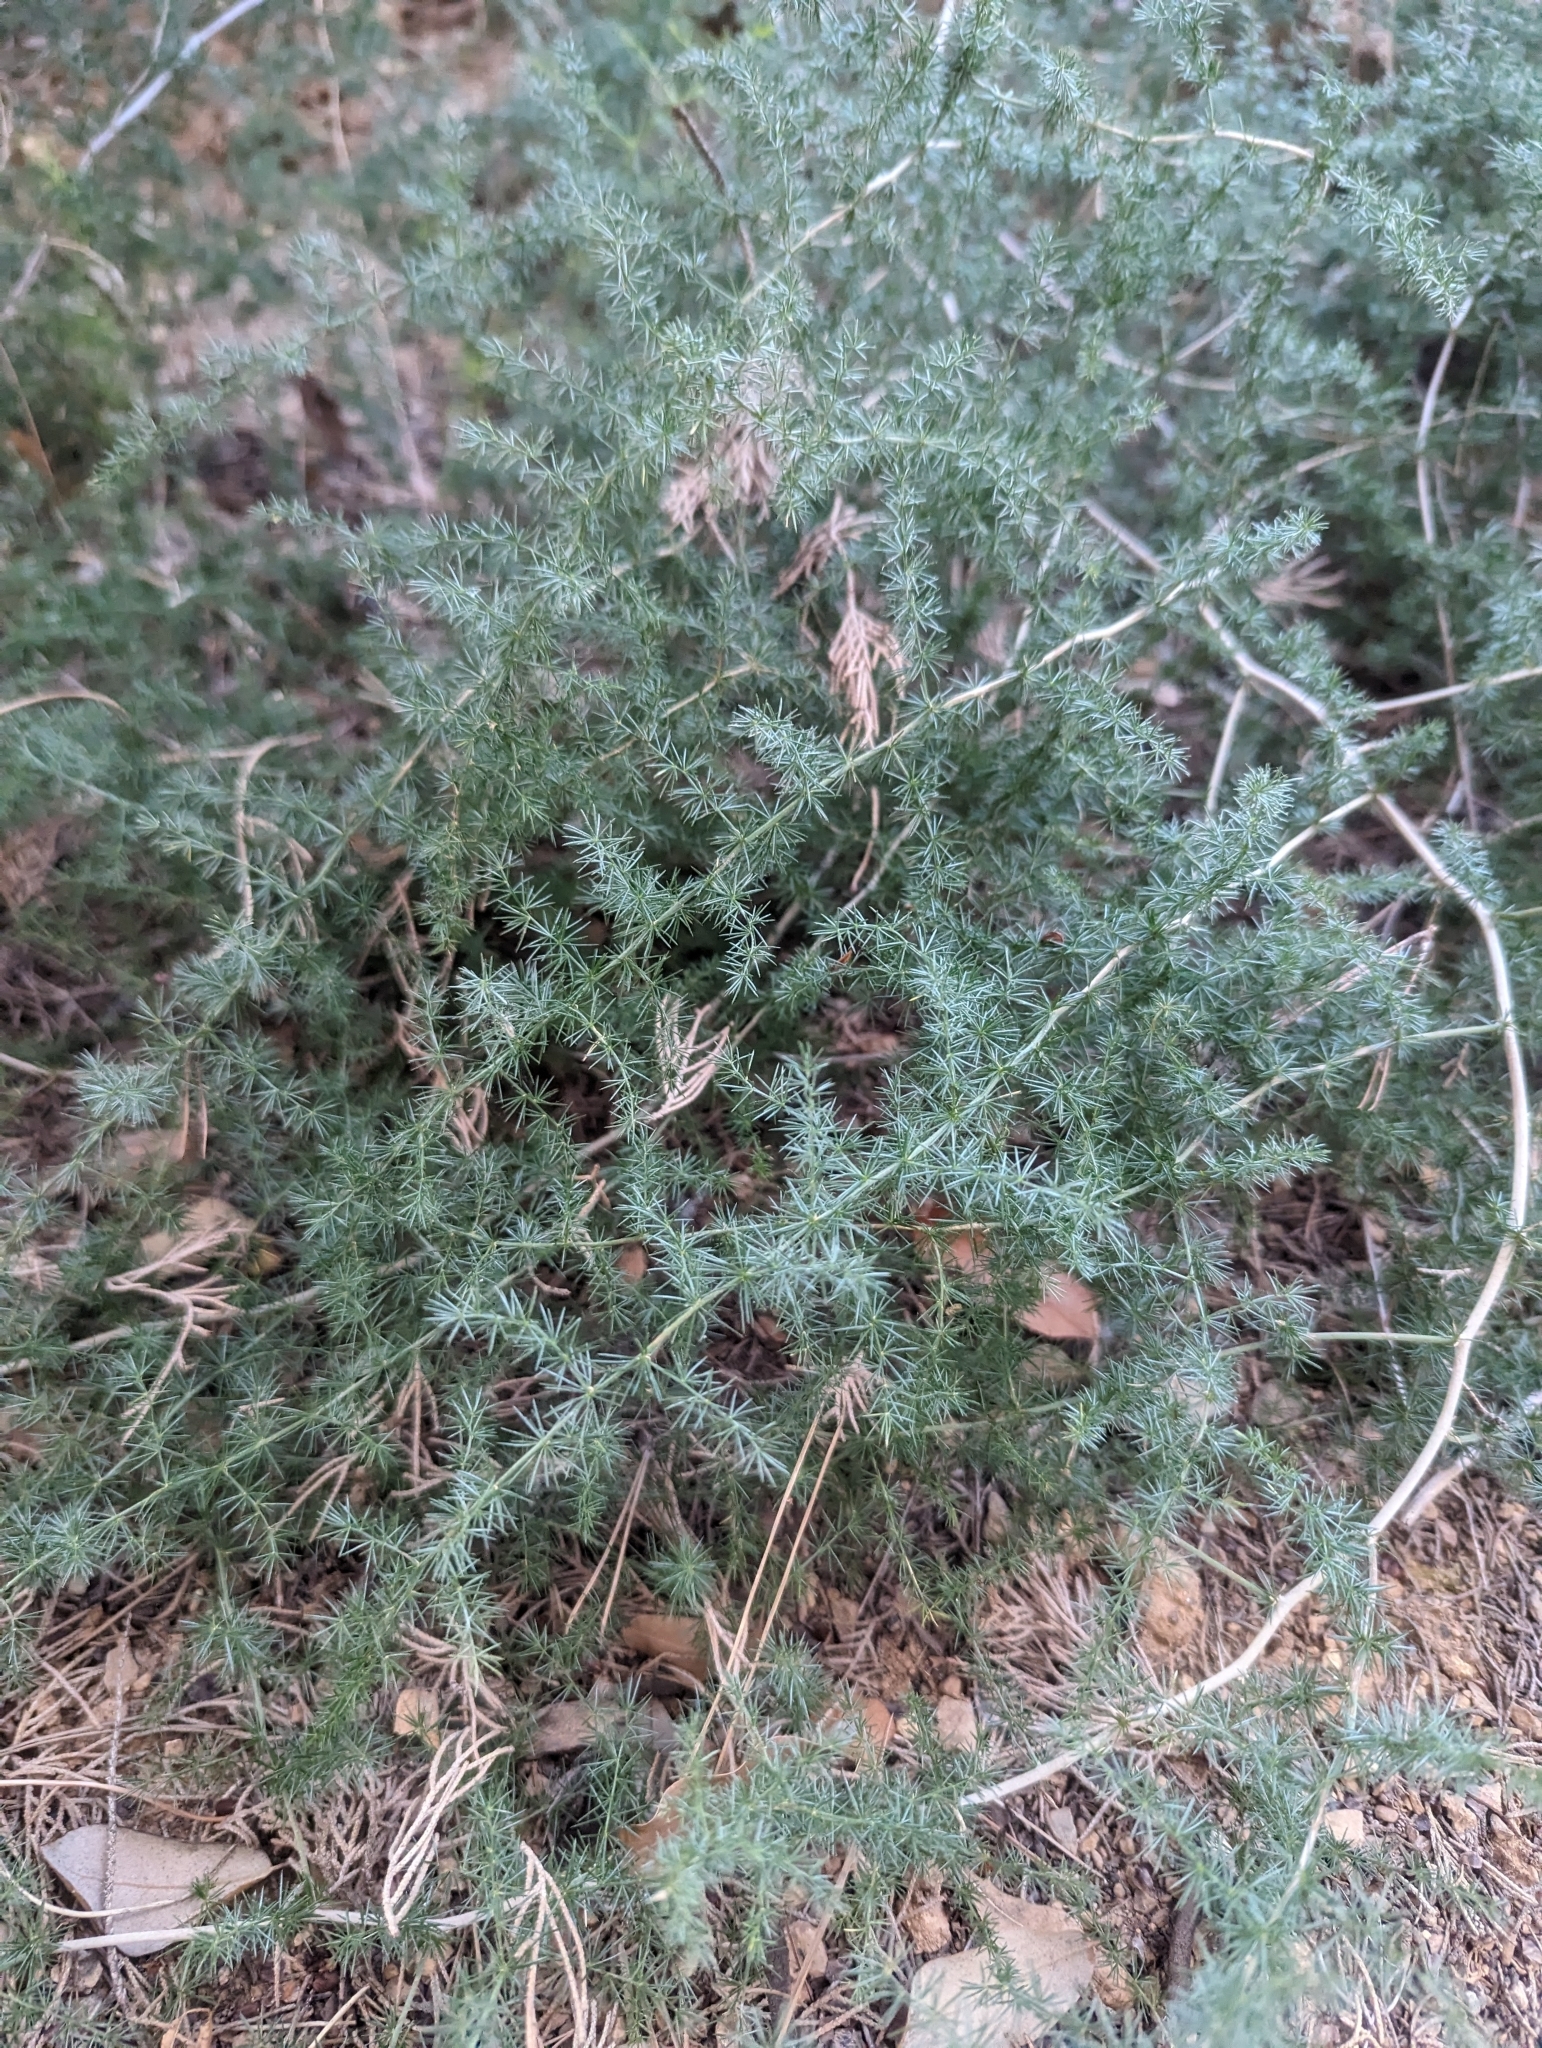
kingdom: Plantae
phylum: Tracheophyta
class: Liliopsida
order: Asparagales
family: Asparagaceae
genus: Asparagus
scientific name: Asparagus acutifolius
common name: Wild asparagus
